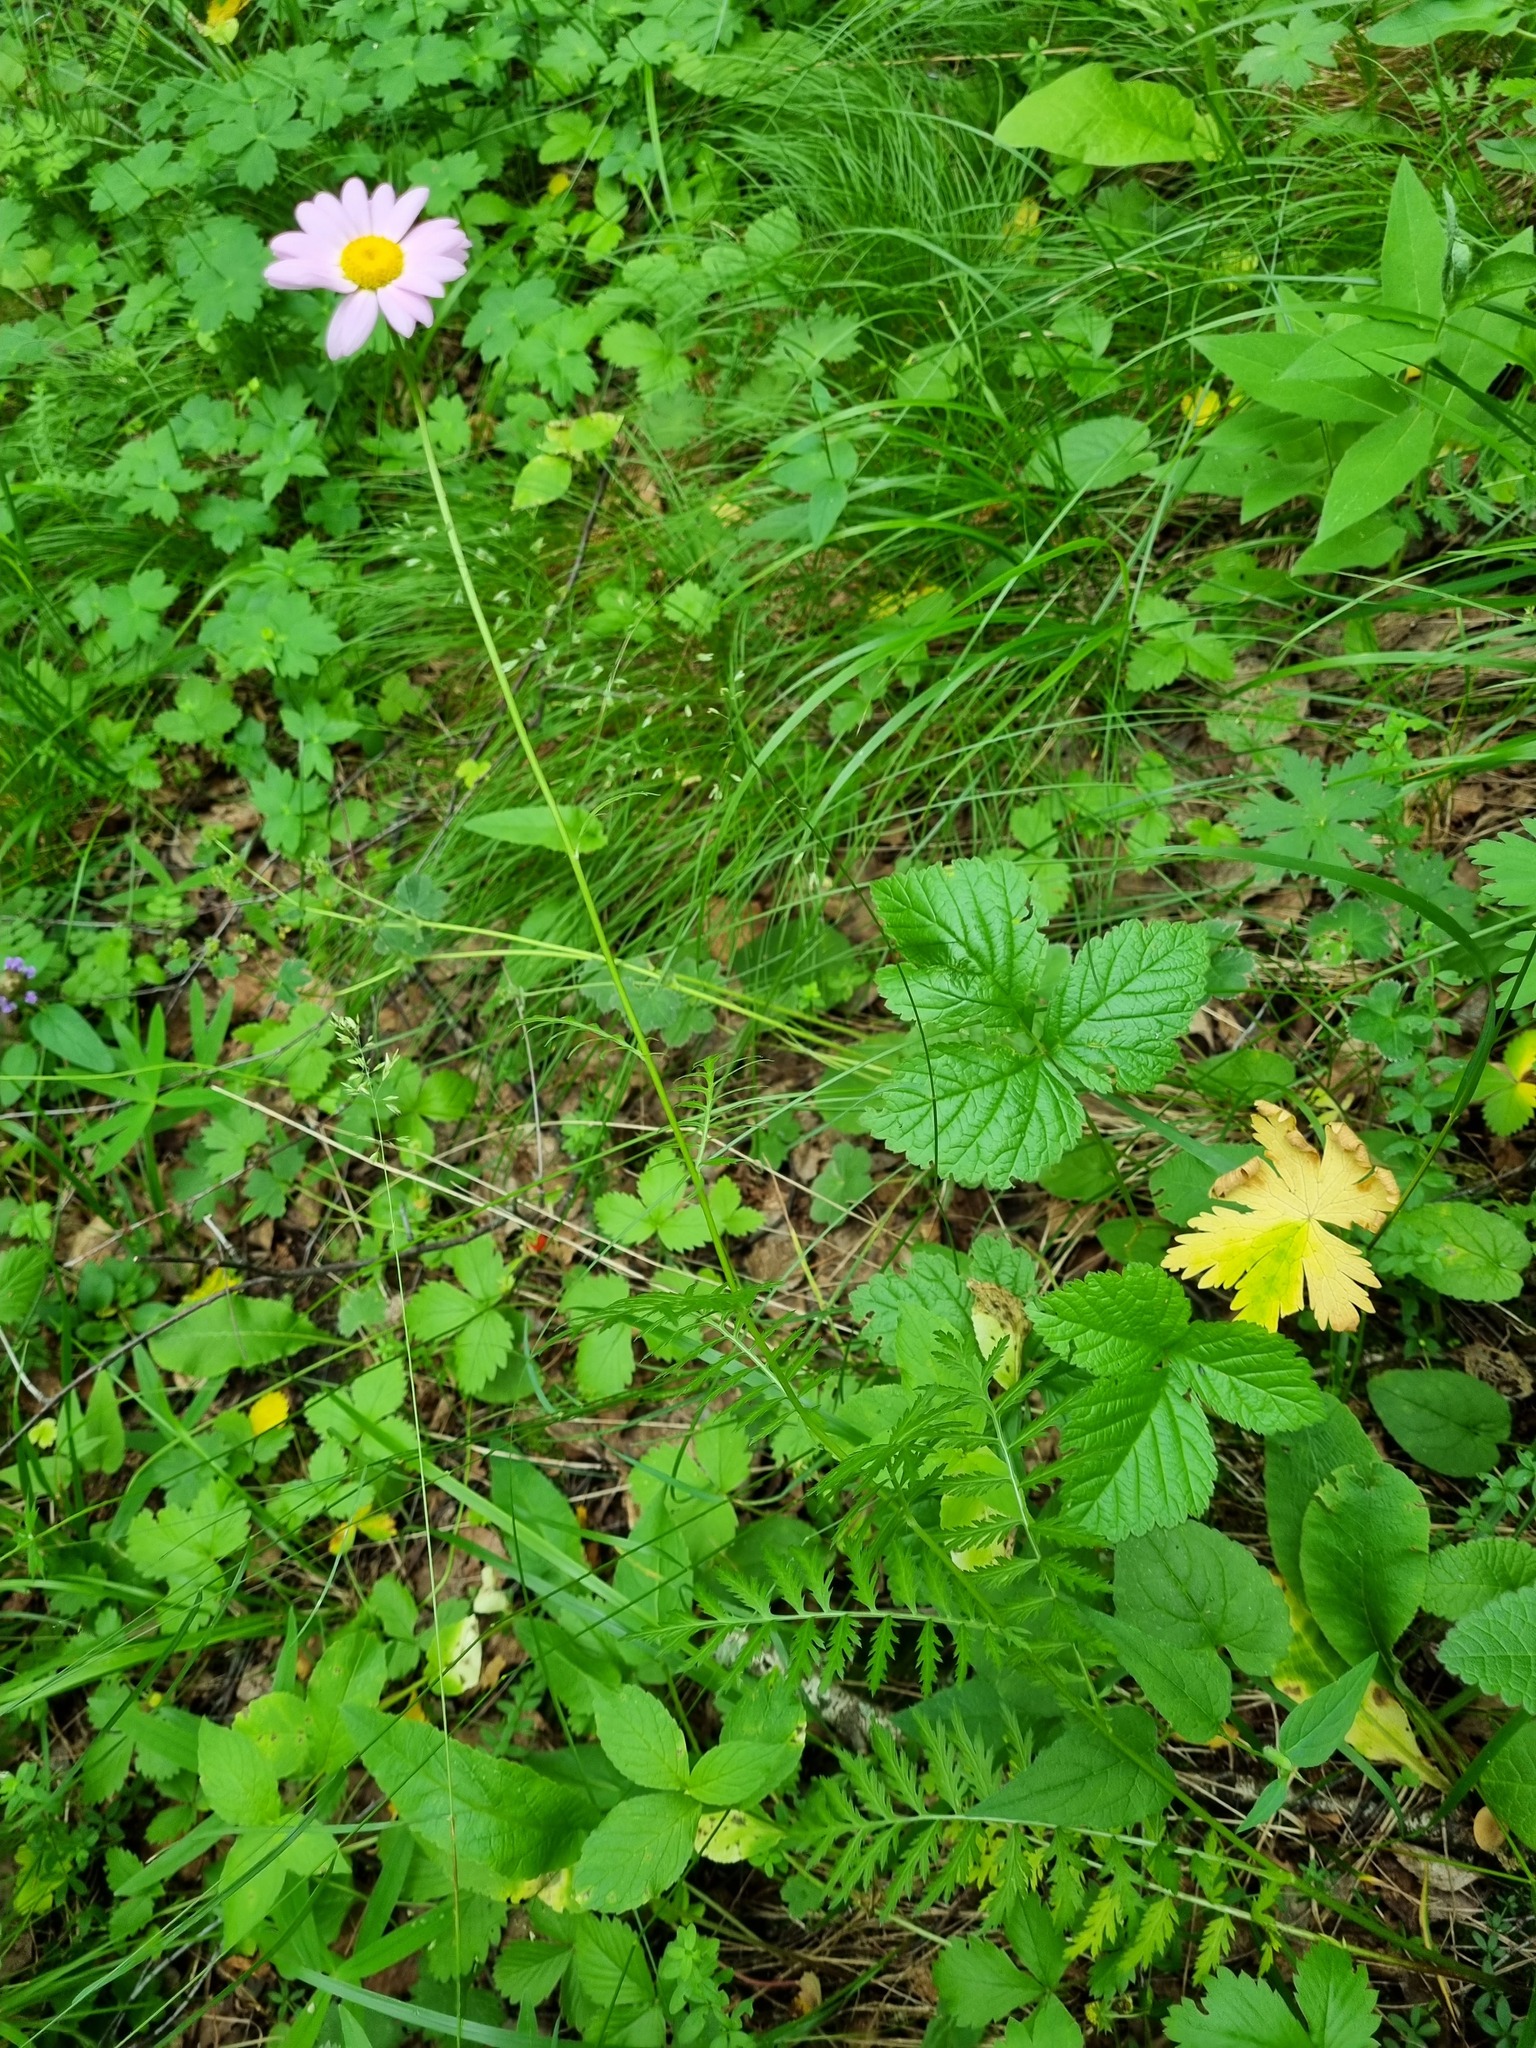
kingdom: Plantae
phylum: Tracheophyta
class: Magnoliopsida
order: Asterales
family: Asteraceae
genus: Tanacetum
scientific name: Tanacetum coccineum
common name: Pyrethum daisy
